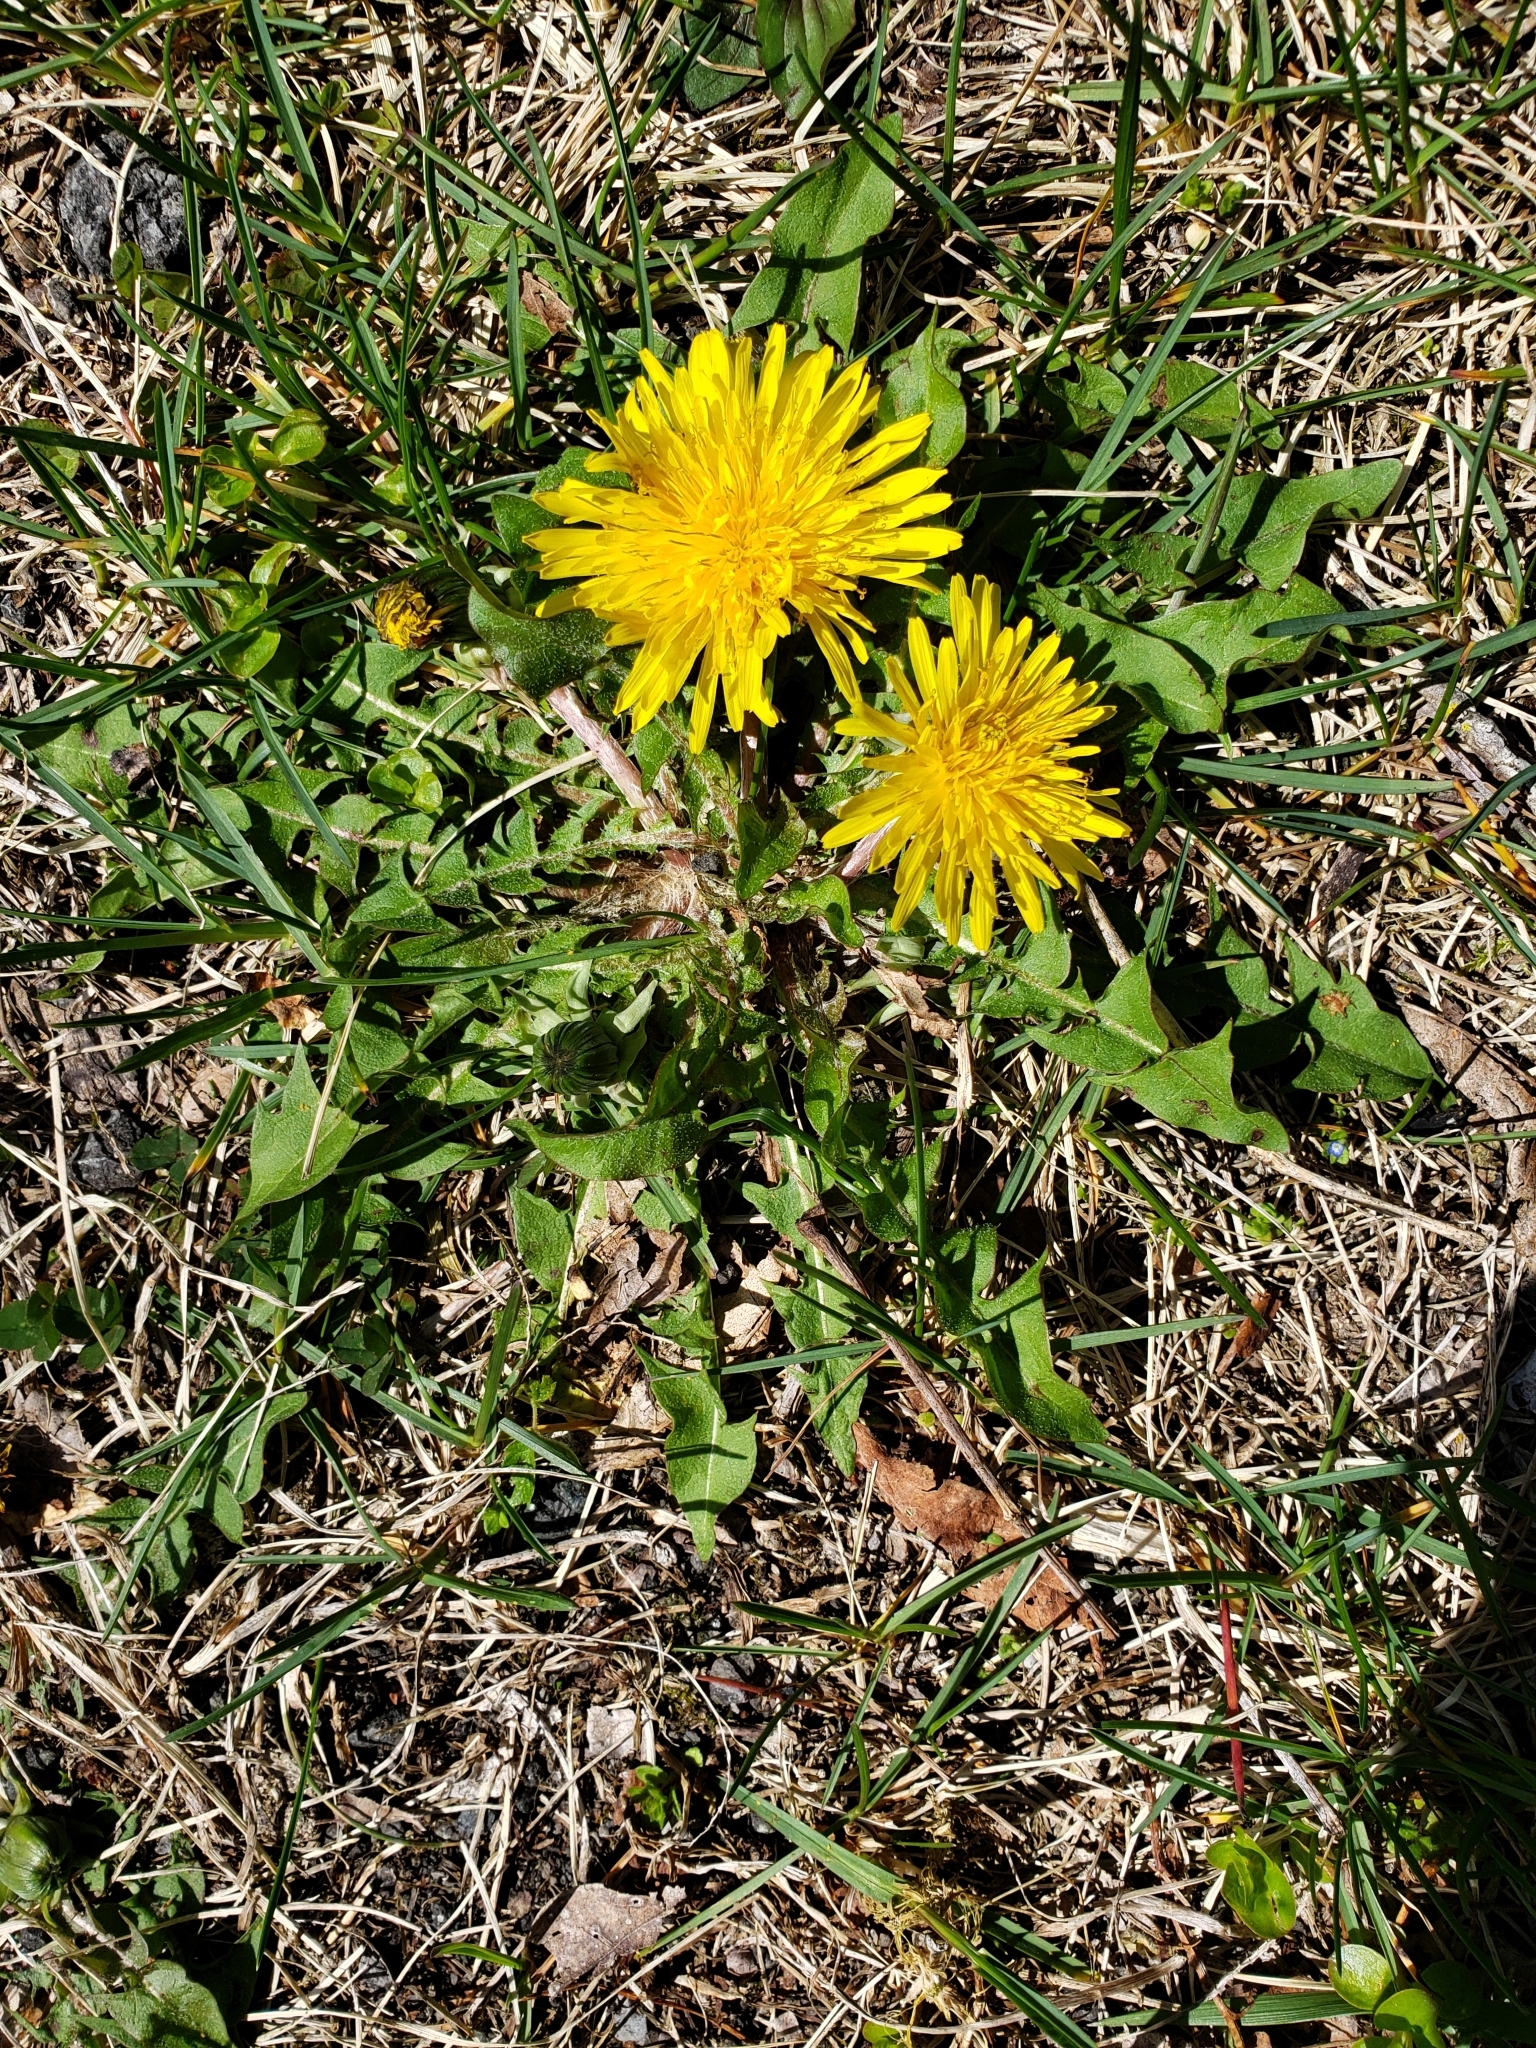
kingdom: Plantae
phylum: Tracheophyta
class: Magnoliopsida
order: Asterales
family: Asteraceae
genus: Taraxacum
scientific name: Taraxacum officinale
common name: Common dandelion
